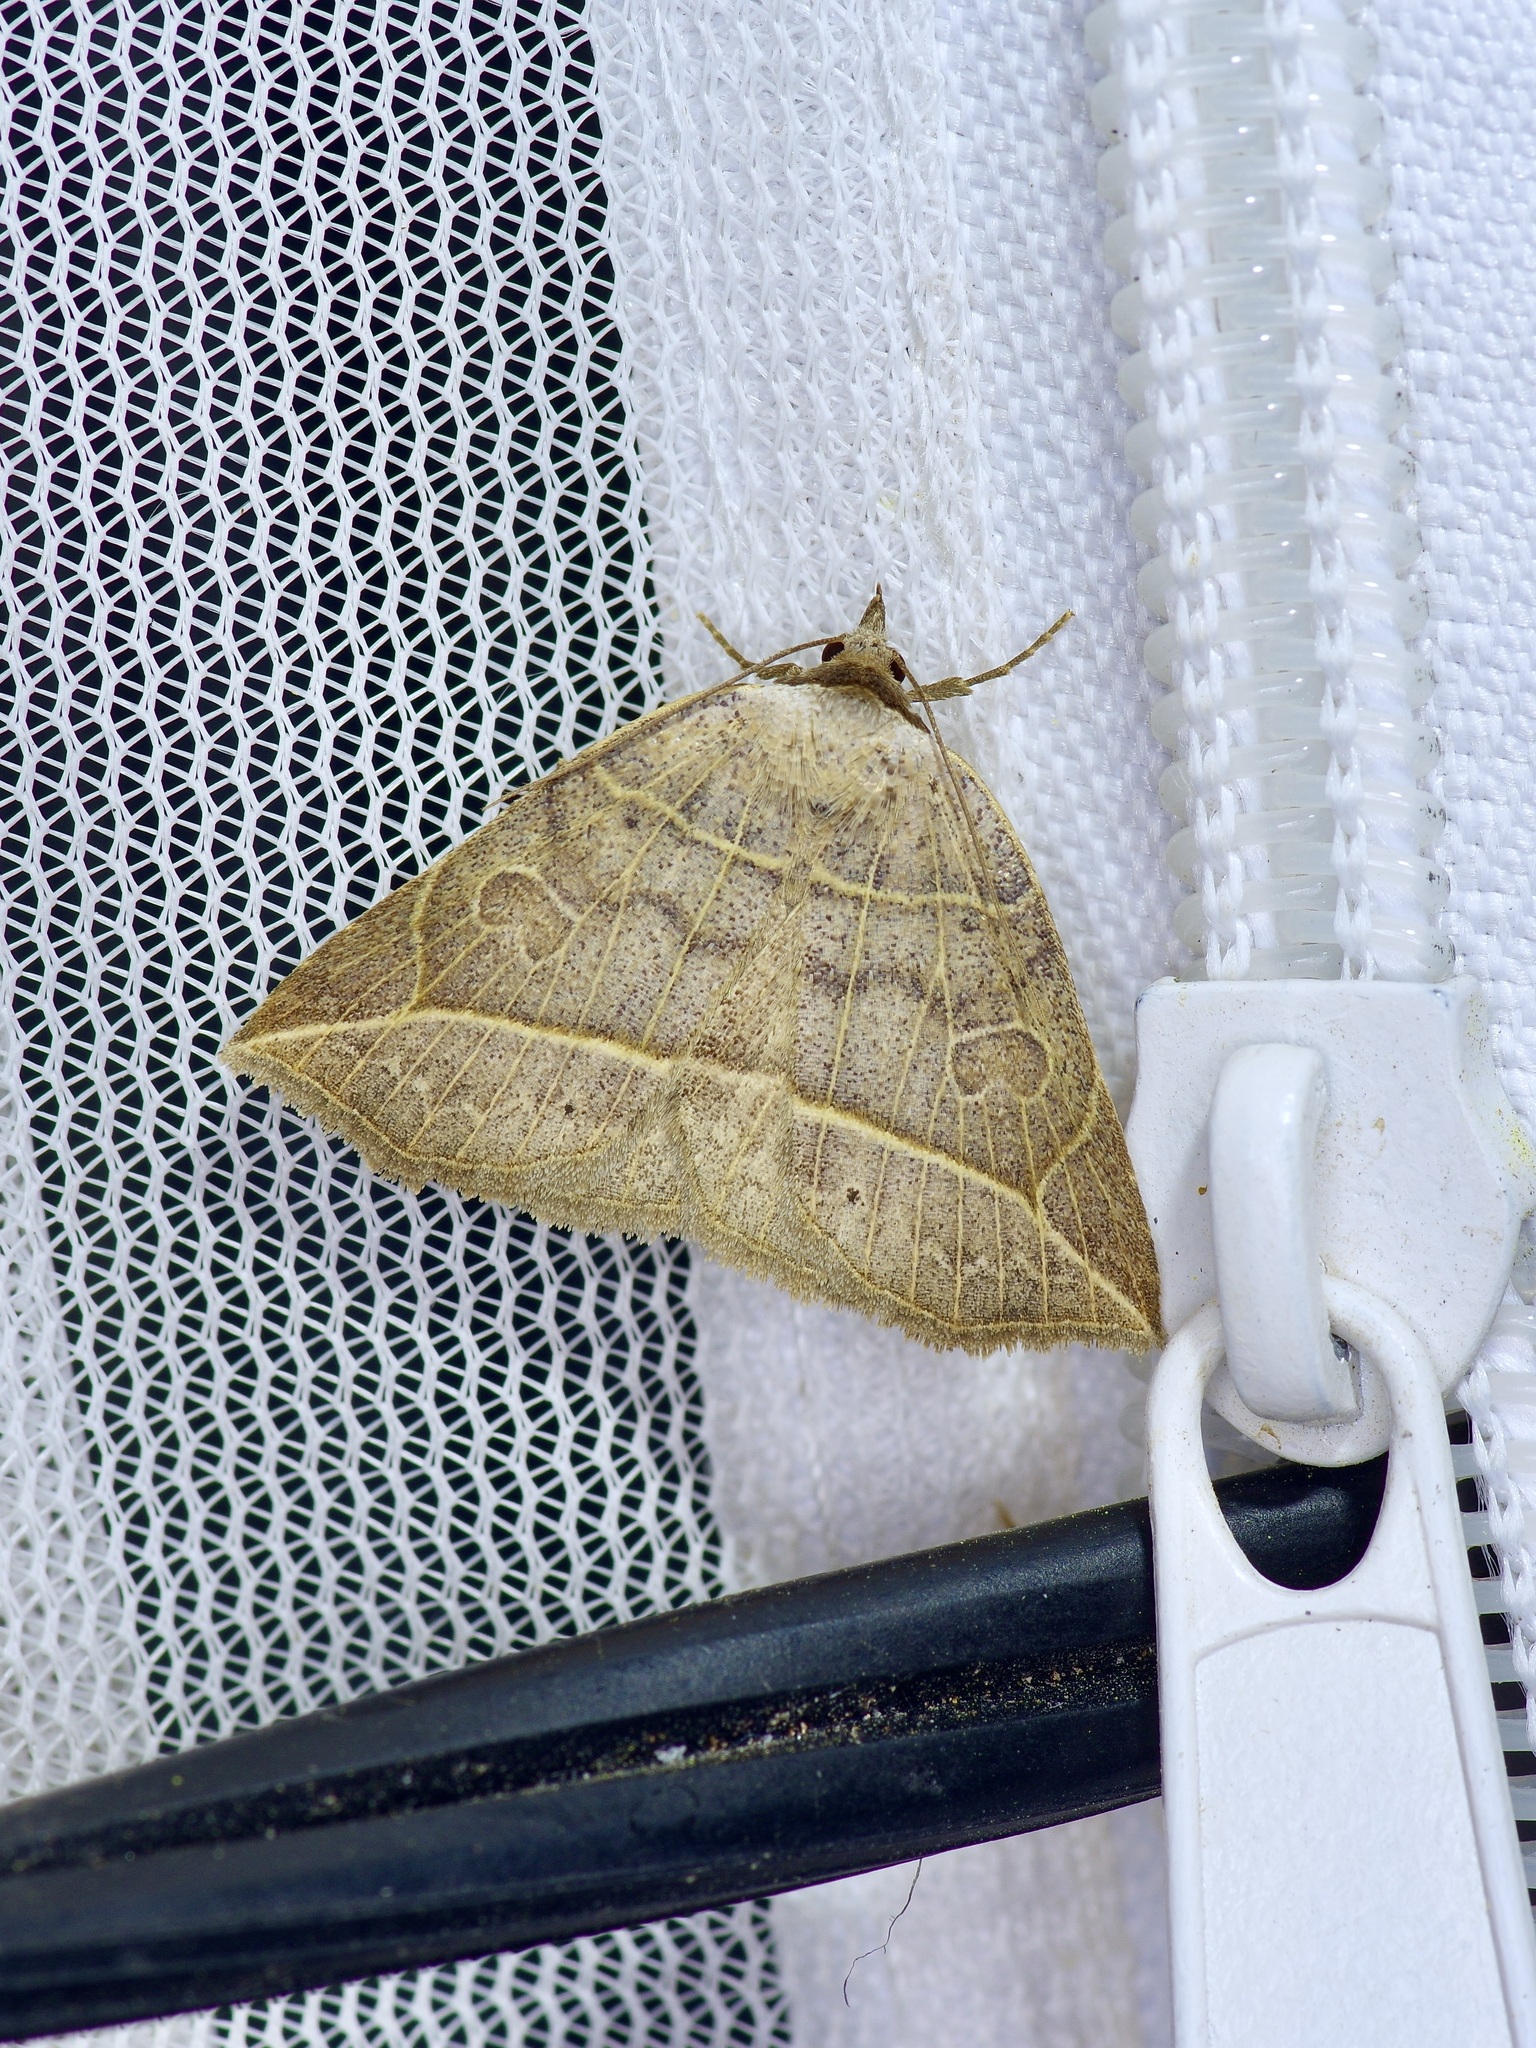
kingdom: Animalia
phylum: Arthropoda
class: Insecta
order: Lepidoptera
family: Erebidae
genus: Isogona
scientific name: Isogona tenuis
